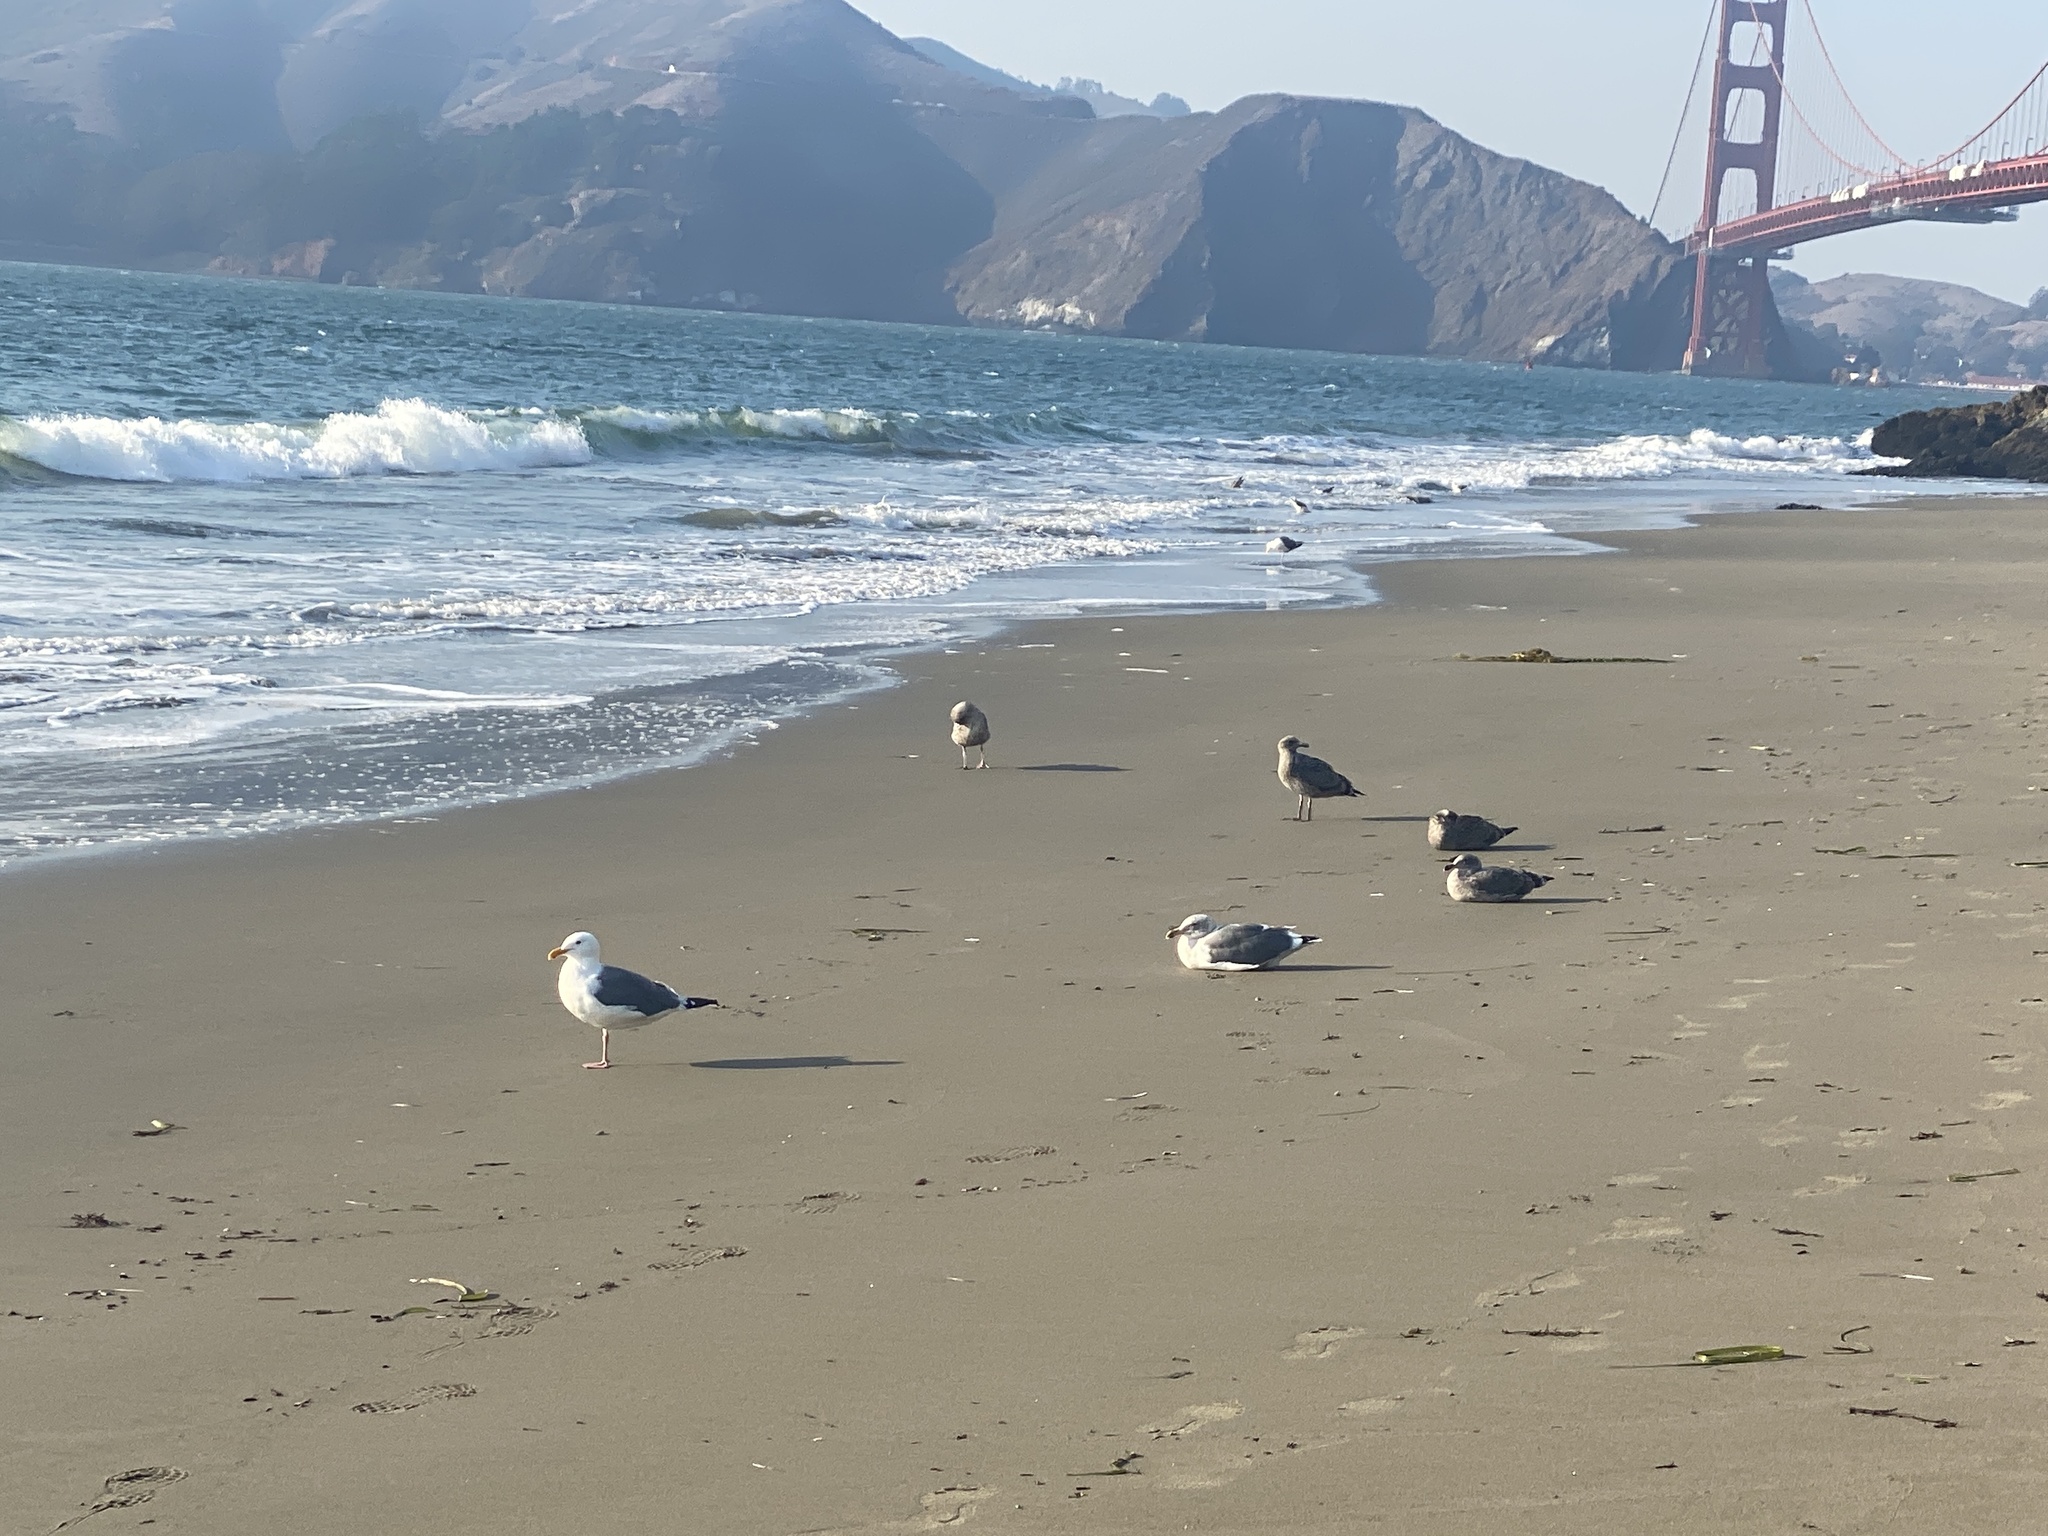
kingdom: Animalia
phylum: Chordata
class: Aves
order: Charadriiformes
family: Laridae
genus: Larus
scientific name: Larus occidentalis
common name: Western gull
